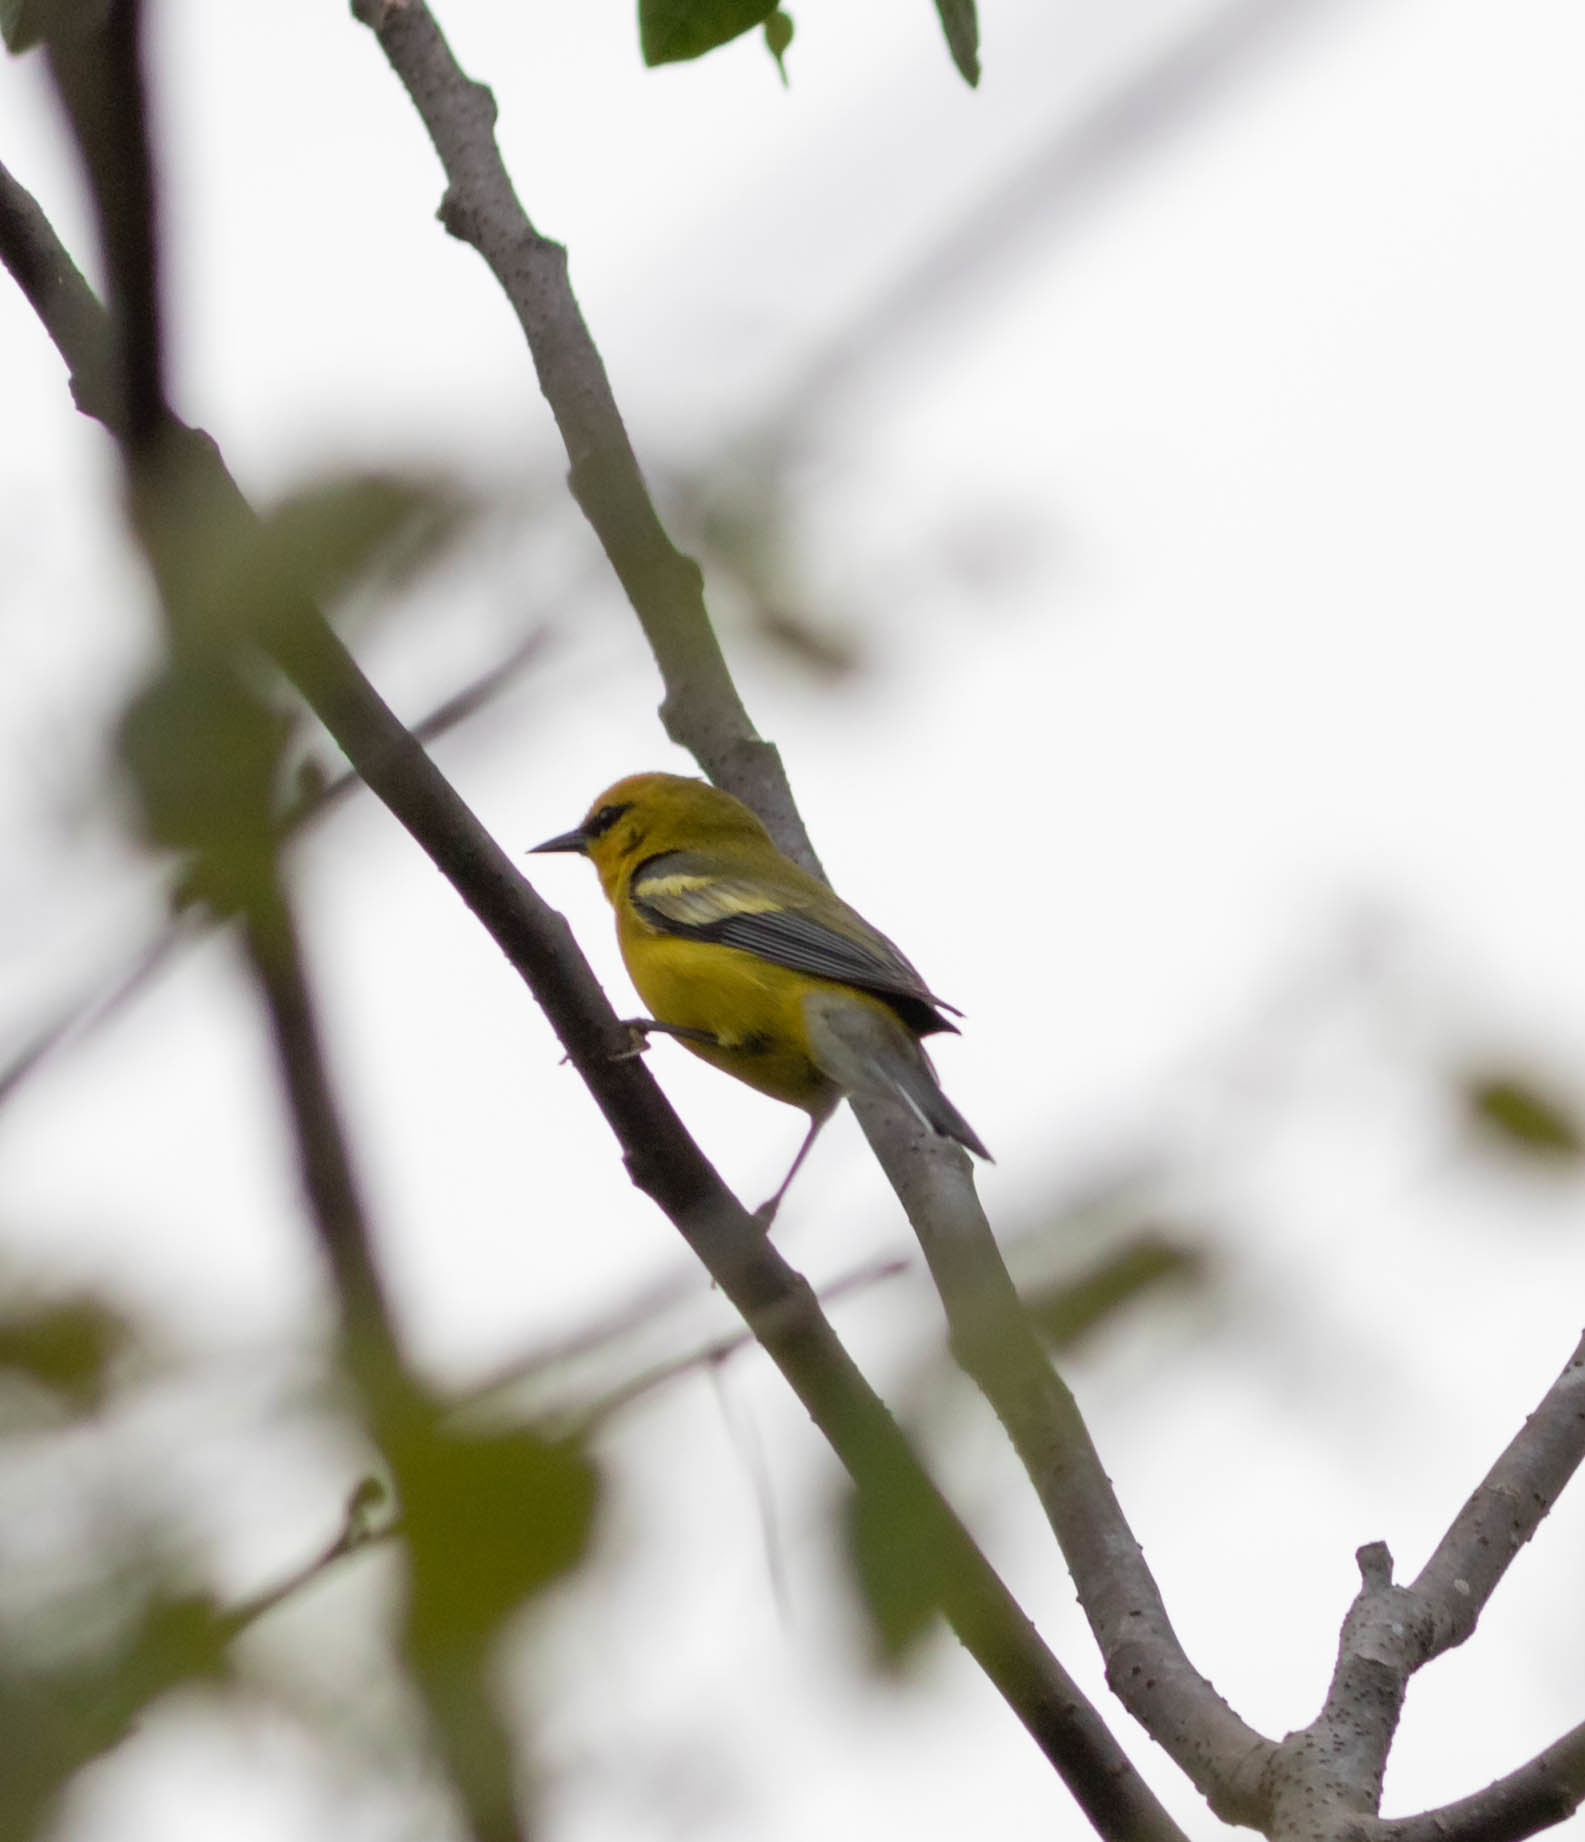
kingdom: Animalia
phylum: Chordata
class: Aves
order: Passeriformes
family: Parulidae
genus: Vermivora
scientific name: Vermivora
